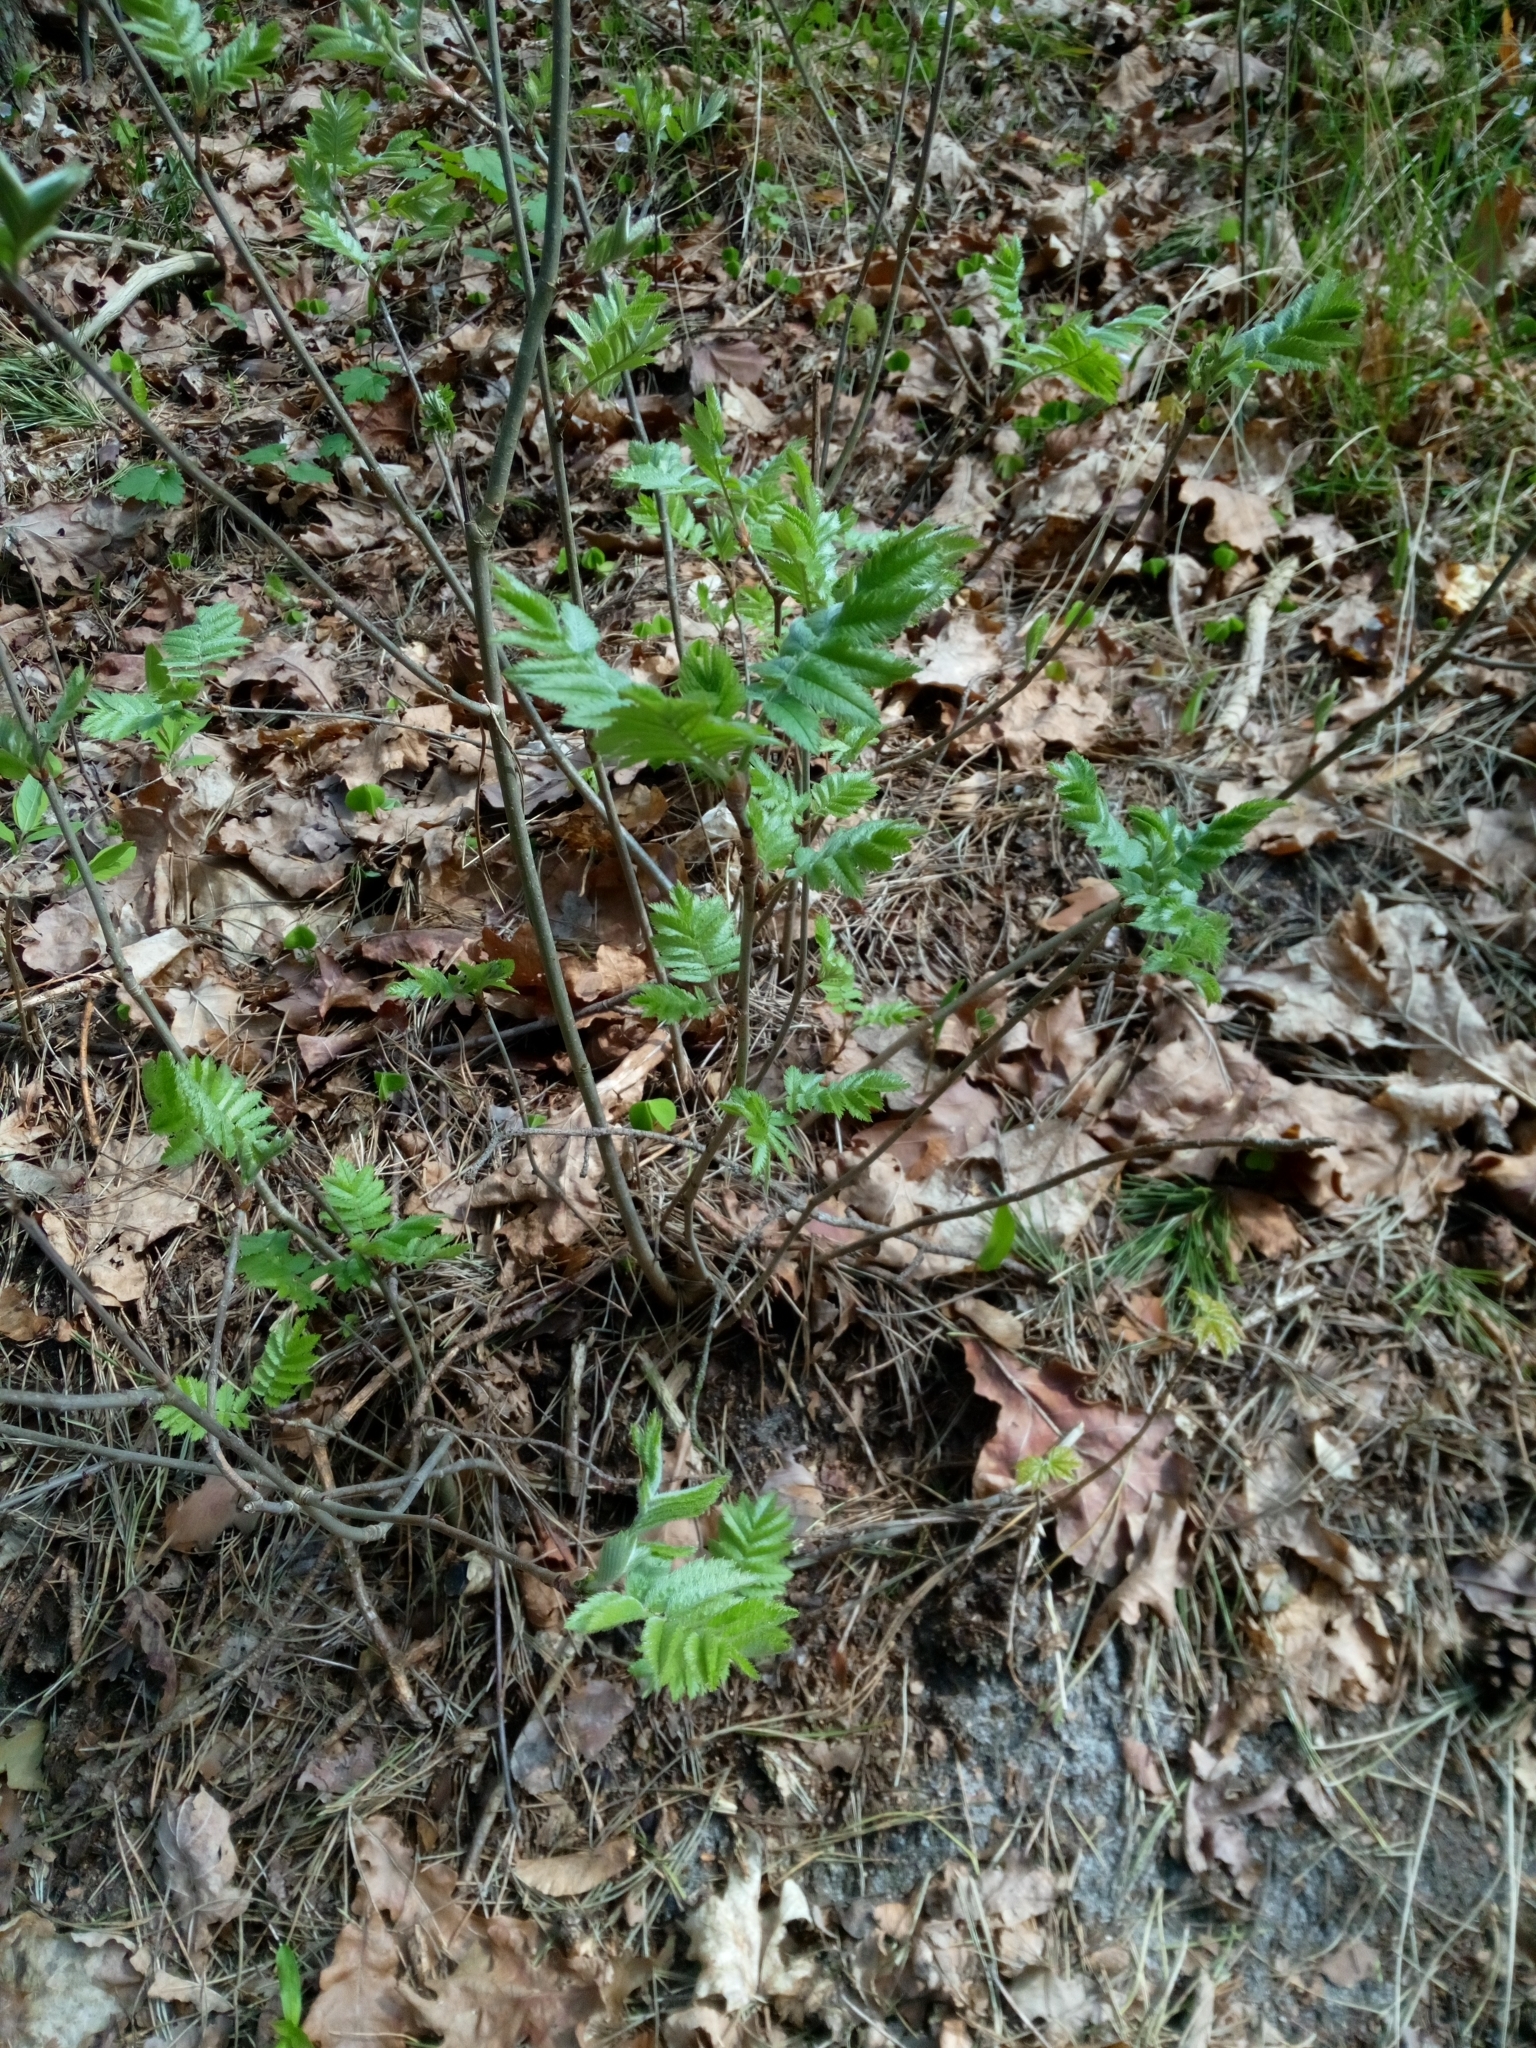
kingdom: Plantae
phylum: Tracheophyta
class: Magnoliopsida
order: Rosales
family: Rosaceae
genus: Sorbus
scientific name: Sorbus aucuparia
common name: Rowan
